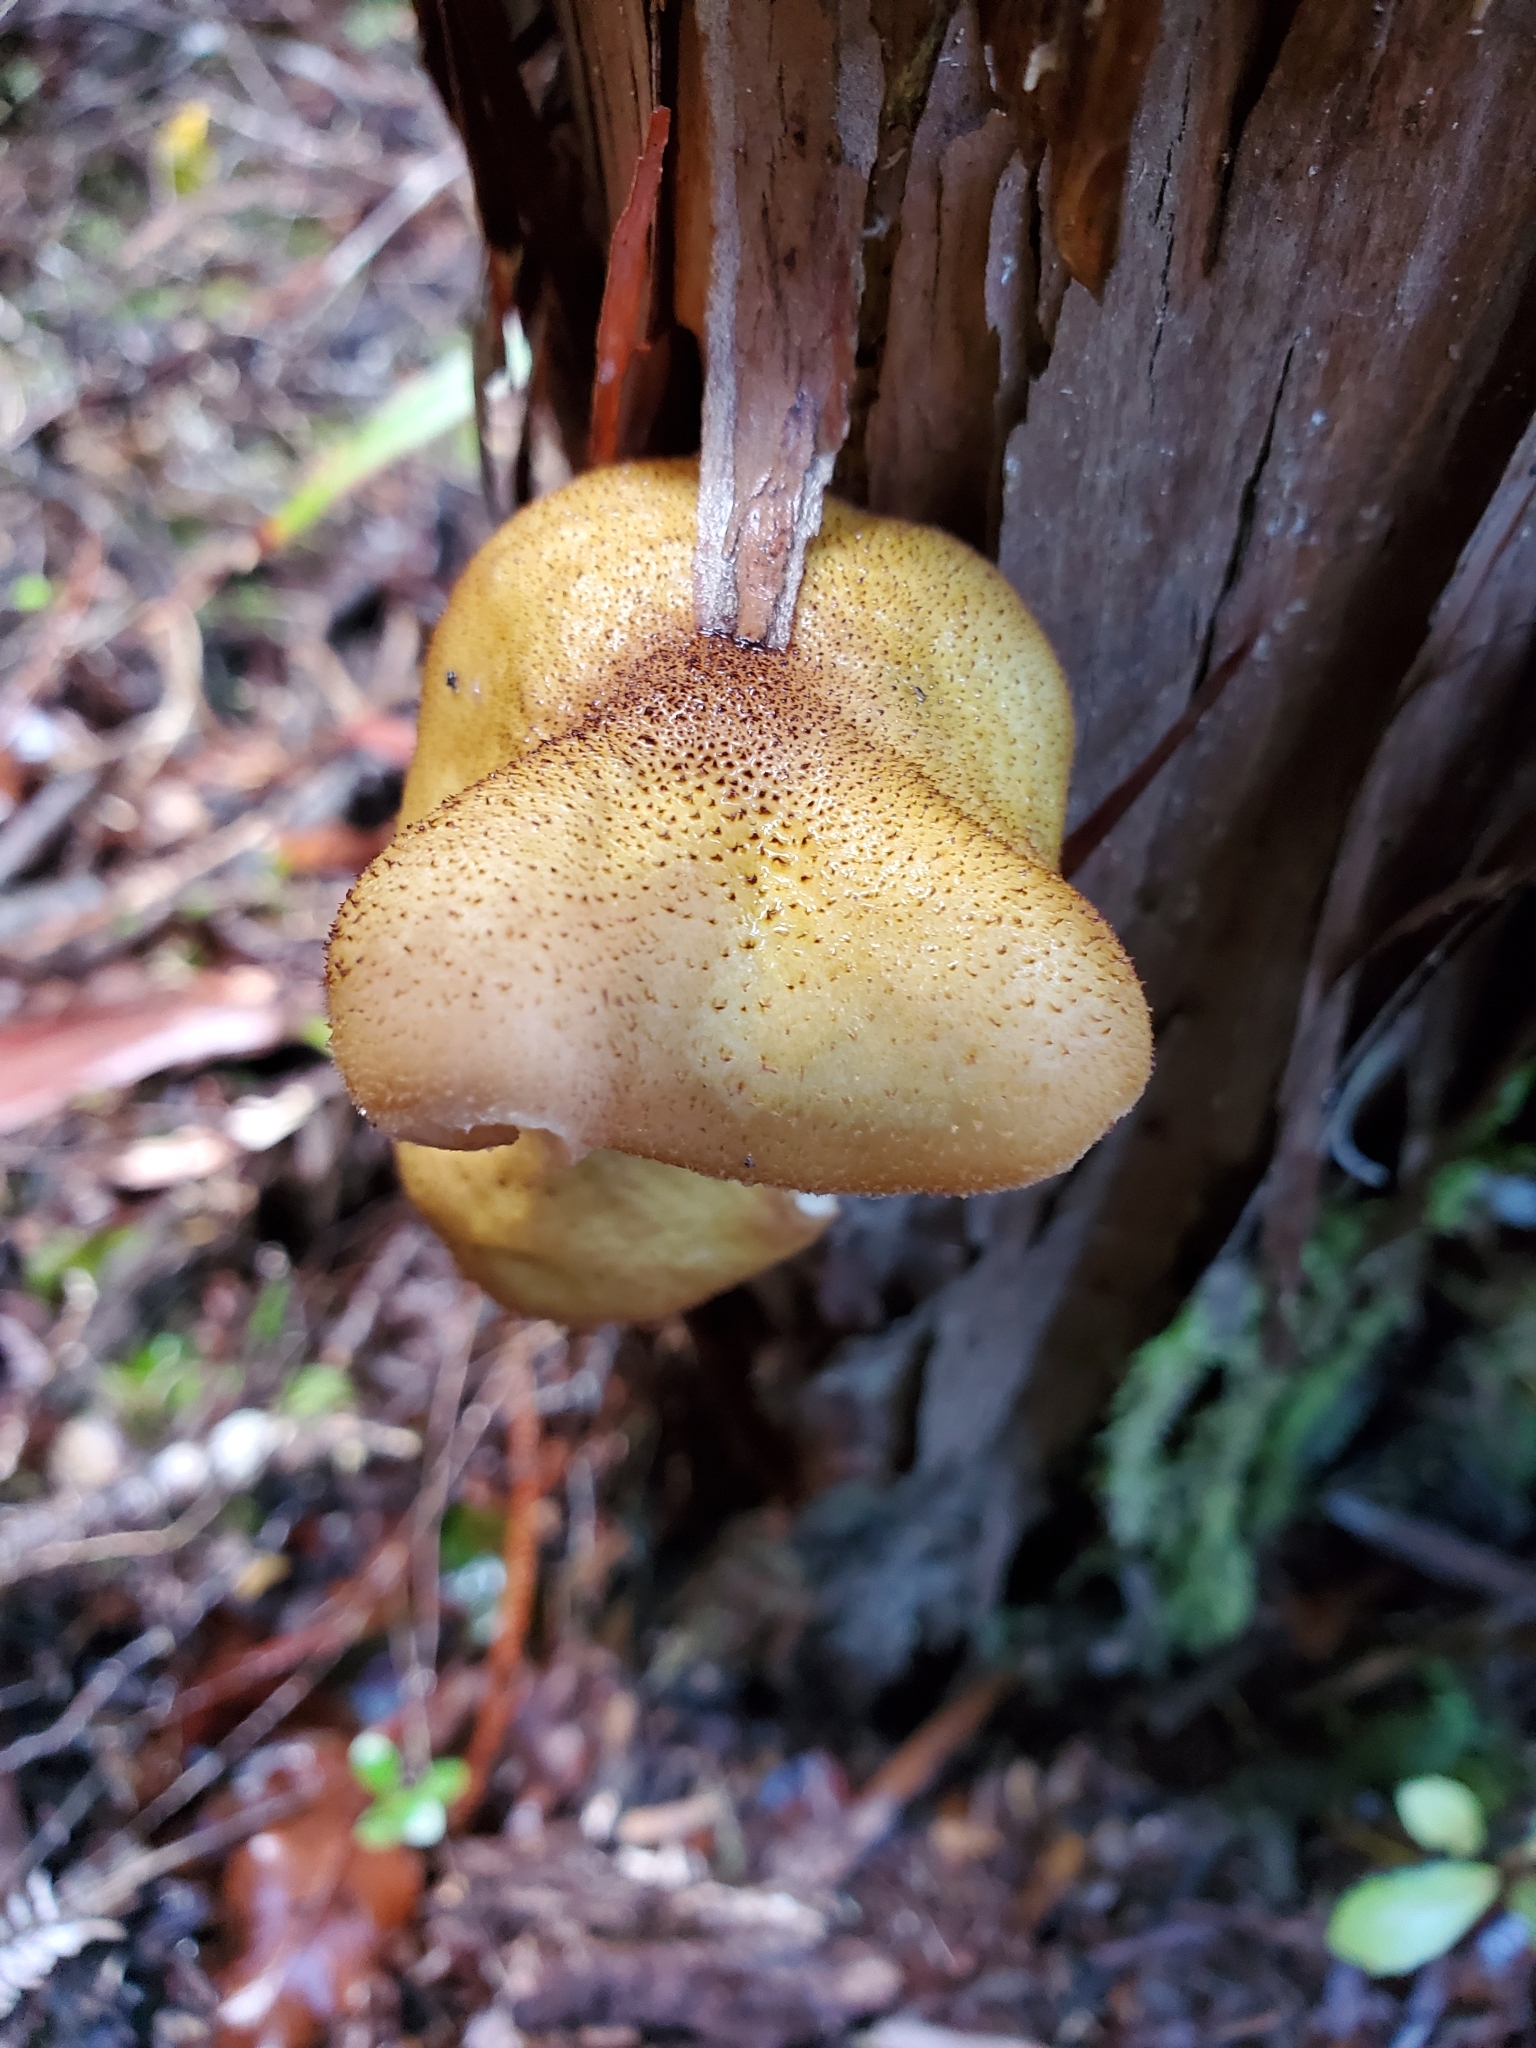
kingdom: Fungi
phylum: Basidiomycota
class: Agaricomycetes
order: Agaricales
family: Physalacriaceae
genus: Armillaria
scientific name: Armillaria limonea
